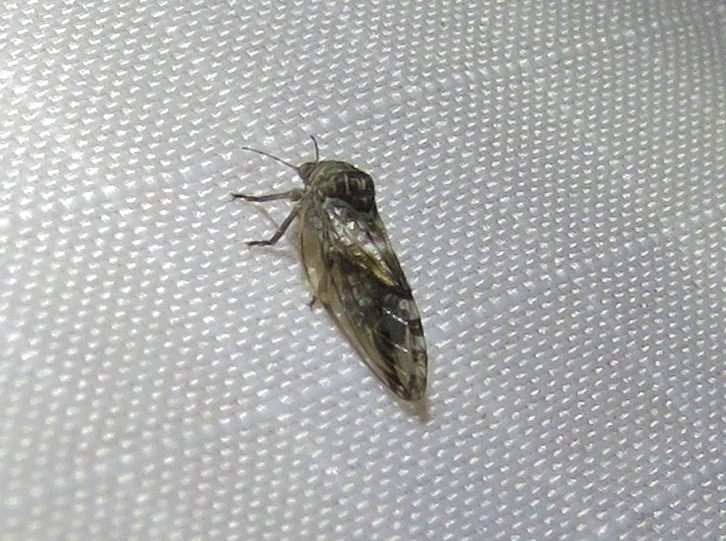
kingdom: Animalia
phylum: Arthropoda
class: Insecta
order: Hemiptera
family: Aphalaridae
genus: Pachypsylla
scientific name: Pachypsylla venusta
